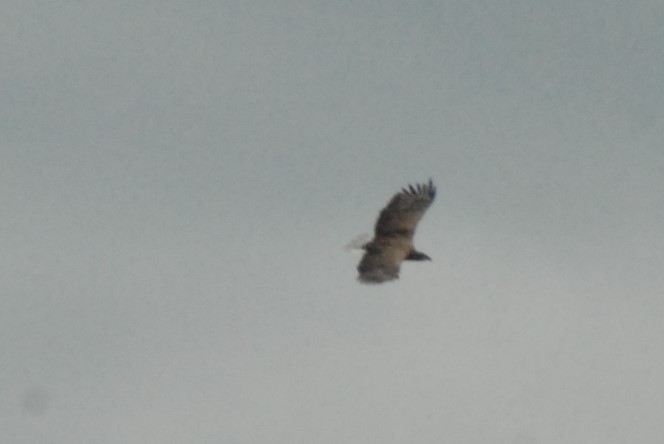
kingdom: Animalia
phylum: Chordata
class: Aves
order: Accipitriformes
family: Accipitridae
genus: Haliaeetus
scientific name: Haliaeetus albicilla
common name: White-tailed eagle
